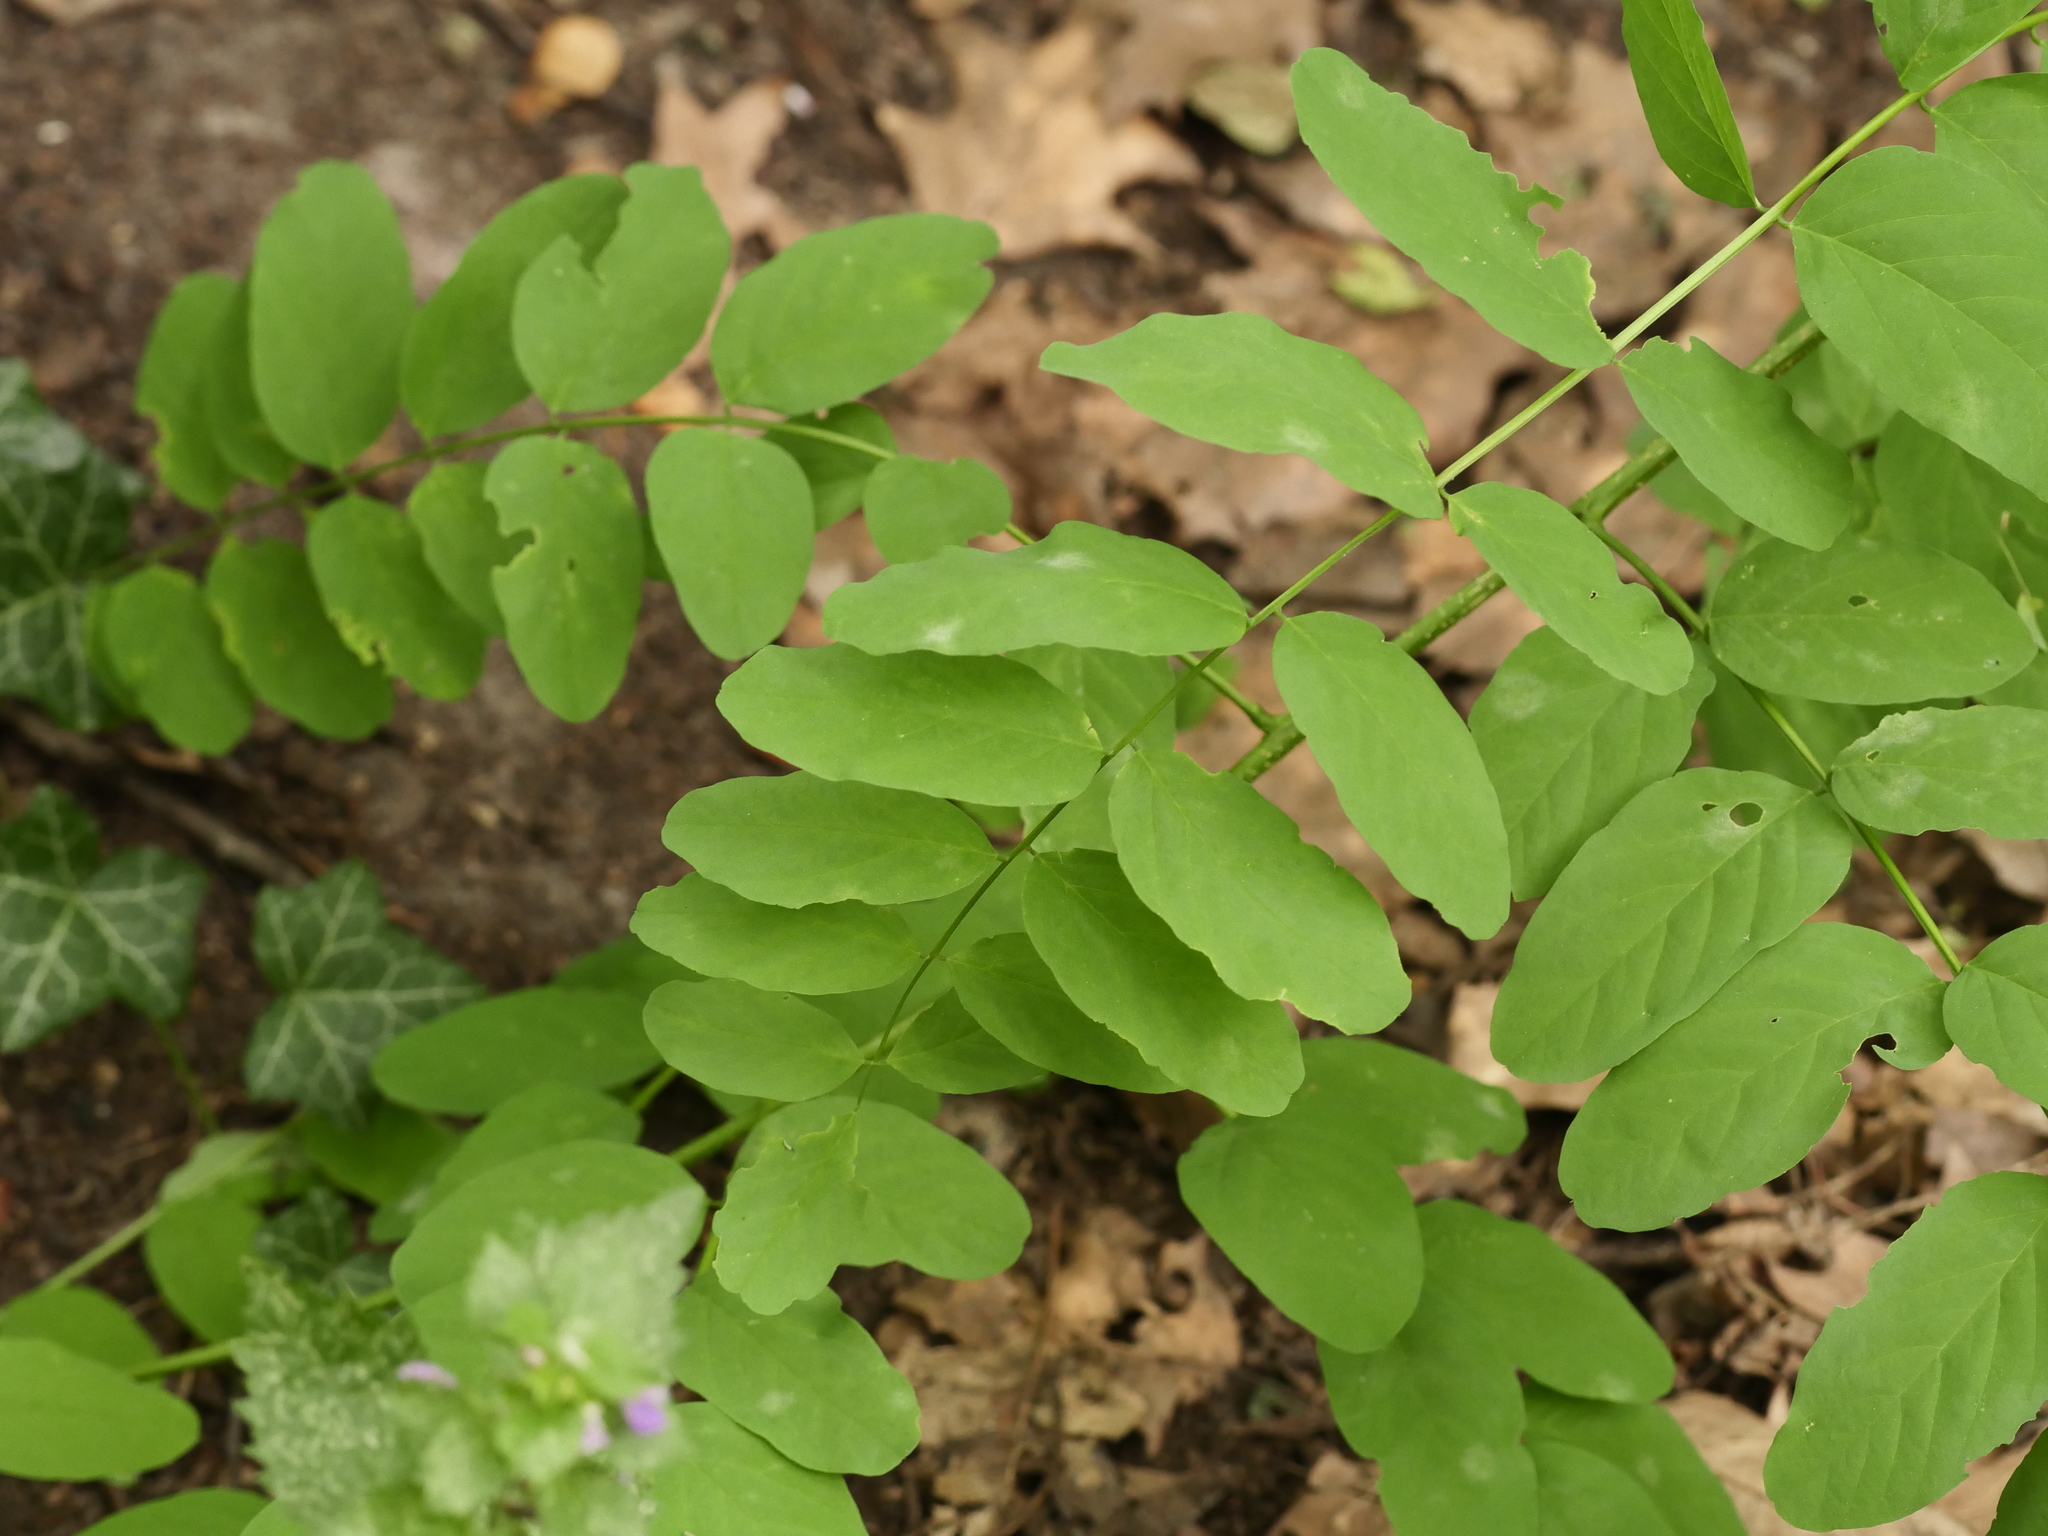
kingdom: Plantae
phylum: Tracheophyta
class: Magnoliopsida
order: Fabales
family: Fabaceae
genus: Robinia
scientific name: Robinia pseudoacacia
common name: Black locust
